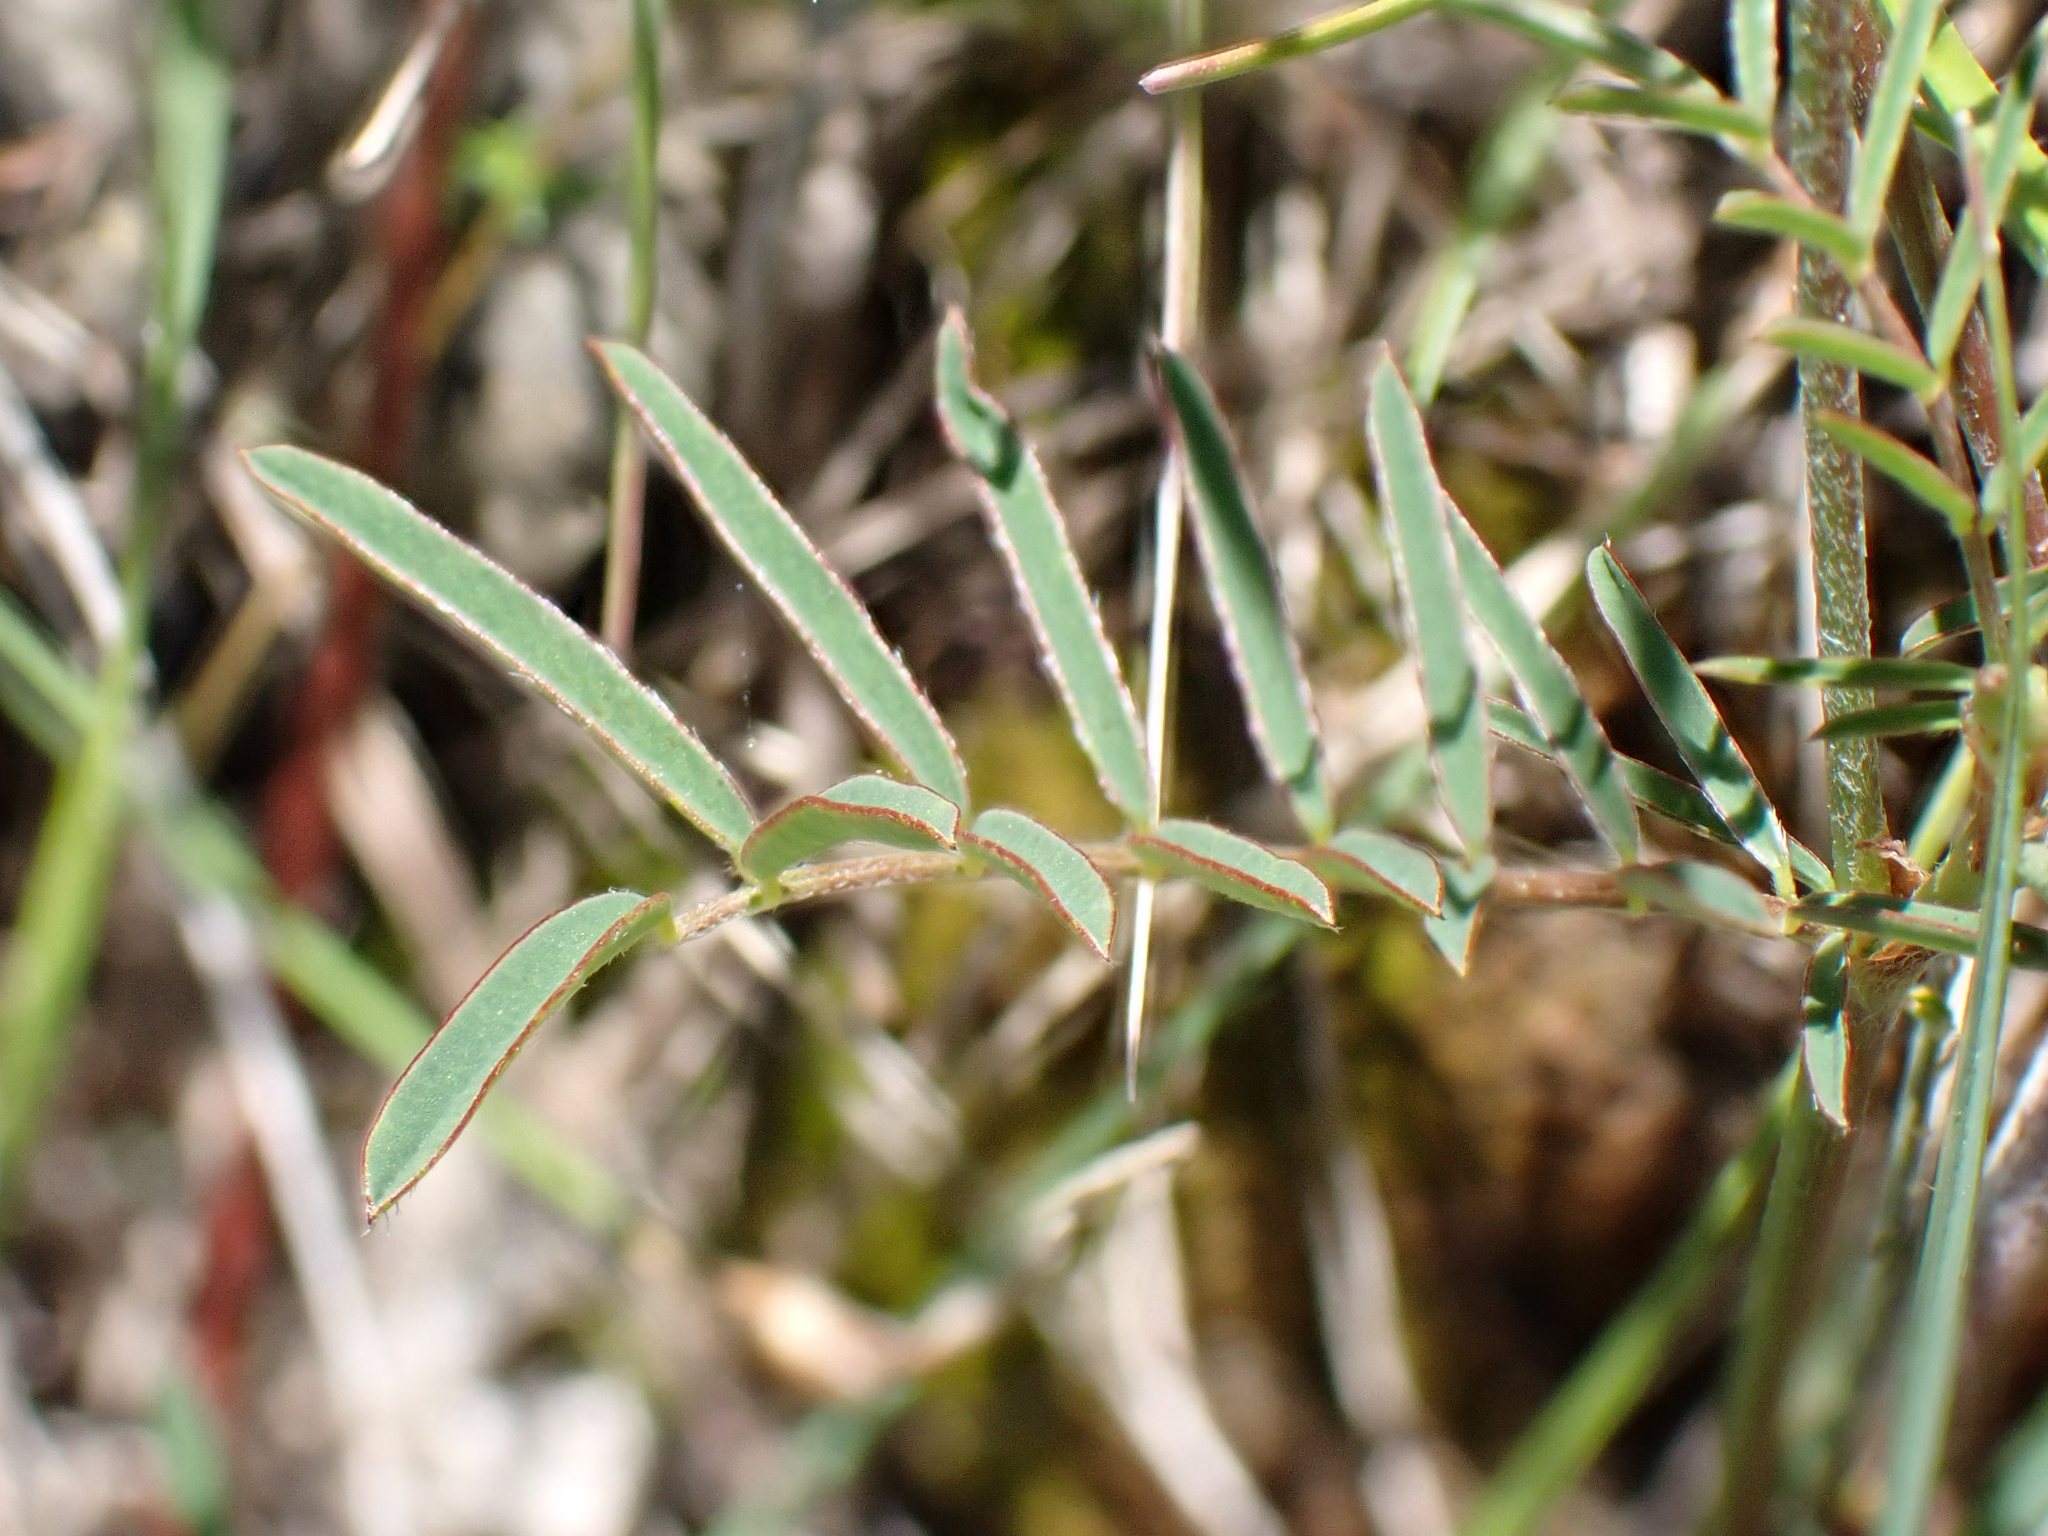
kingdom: Plantae
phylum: Tracheophyta
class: Magnoliopsida
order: Fabales
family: Fabaceae
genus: Onobrychis
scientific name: Onobrychis supina
